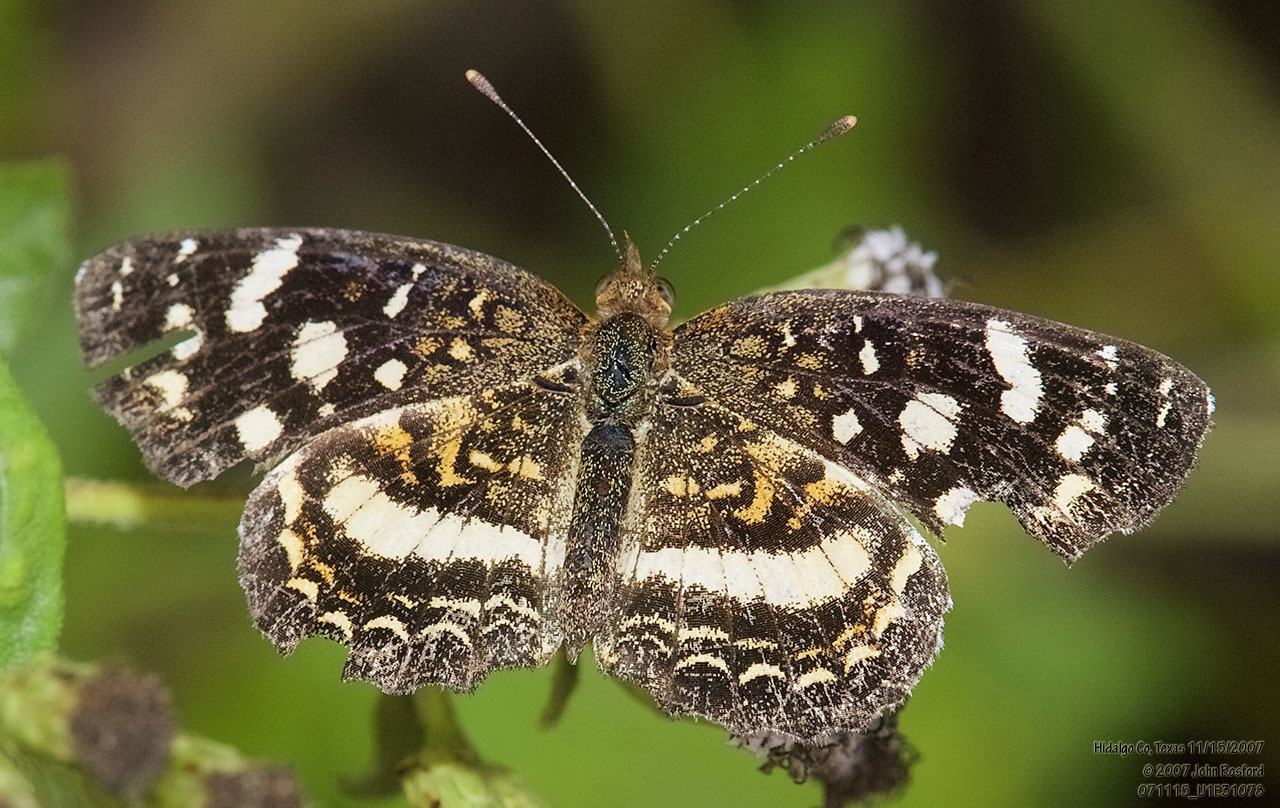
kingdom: Animalia
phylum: Arthropoda
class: Insecta
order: Lepidoptera
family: Nymphalidae
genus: Anthanassa
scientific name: Anthanassa tulcis
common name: Pale-banded crescent
